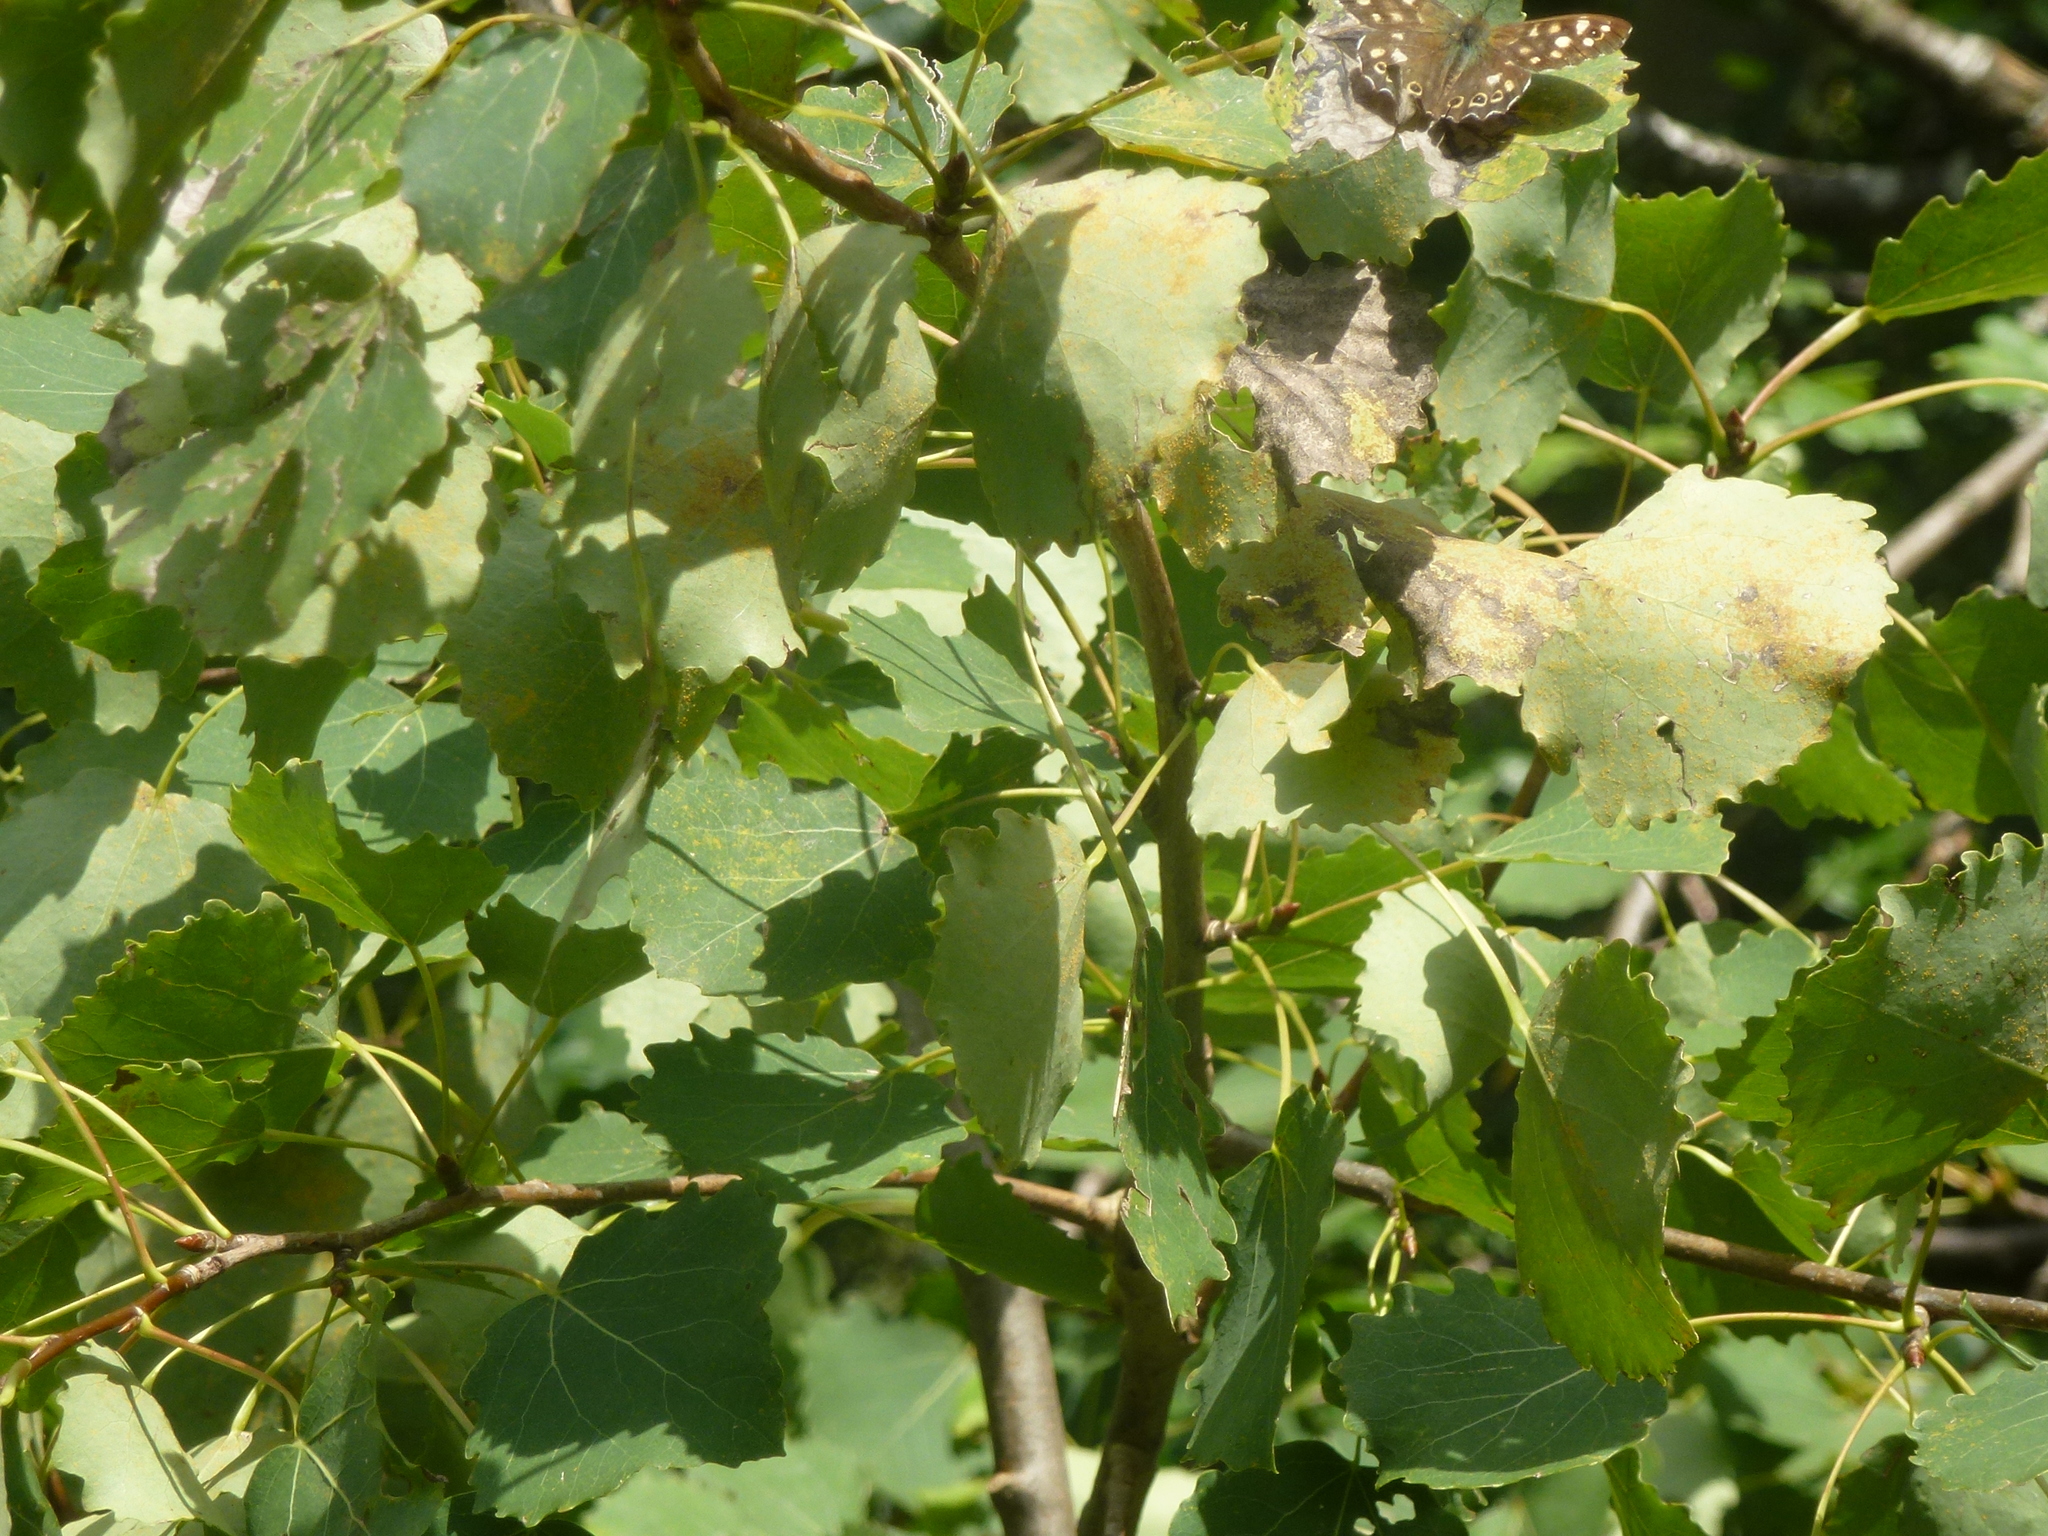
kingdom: Plantae
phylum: Tracheophyta
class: Magnoliopsida
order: Malpighiales
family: Salicaceae
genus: Populus
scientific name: Populus tremula
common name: European aspen
